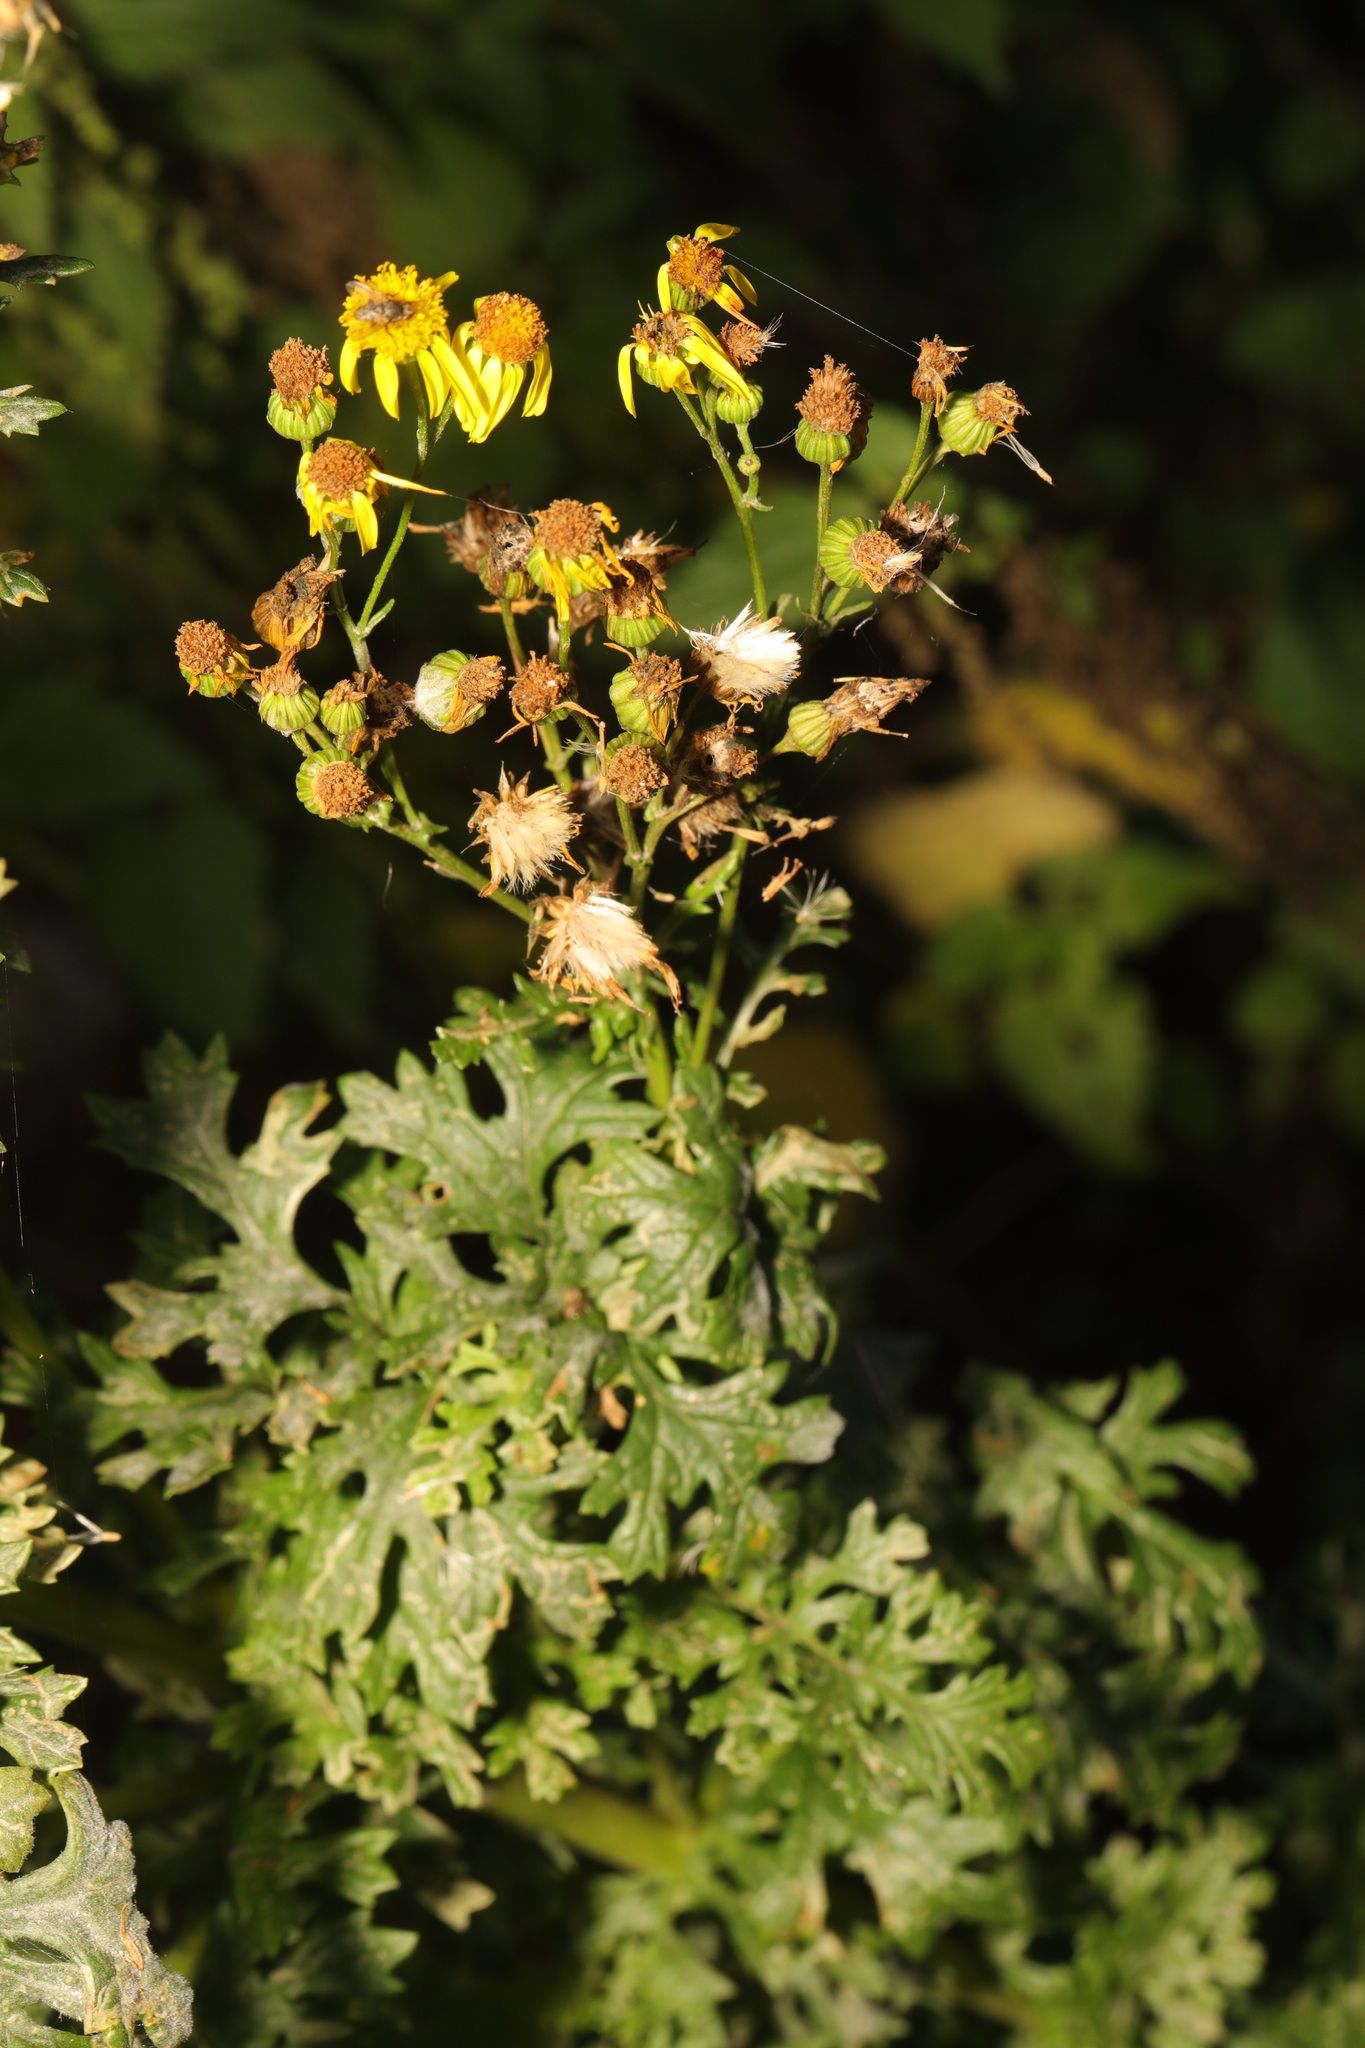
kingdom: Plantae
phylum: Tracheophyta
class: Magnoliopsida
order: Asterales
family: Asteraceae
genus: Jacobaea
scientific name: Jacobaea vulgaris
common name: Stinking willie
